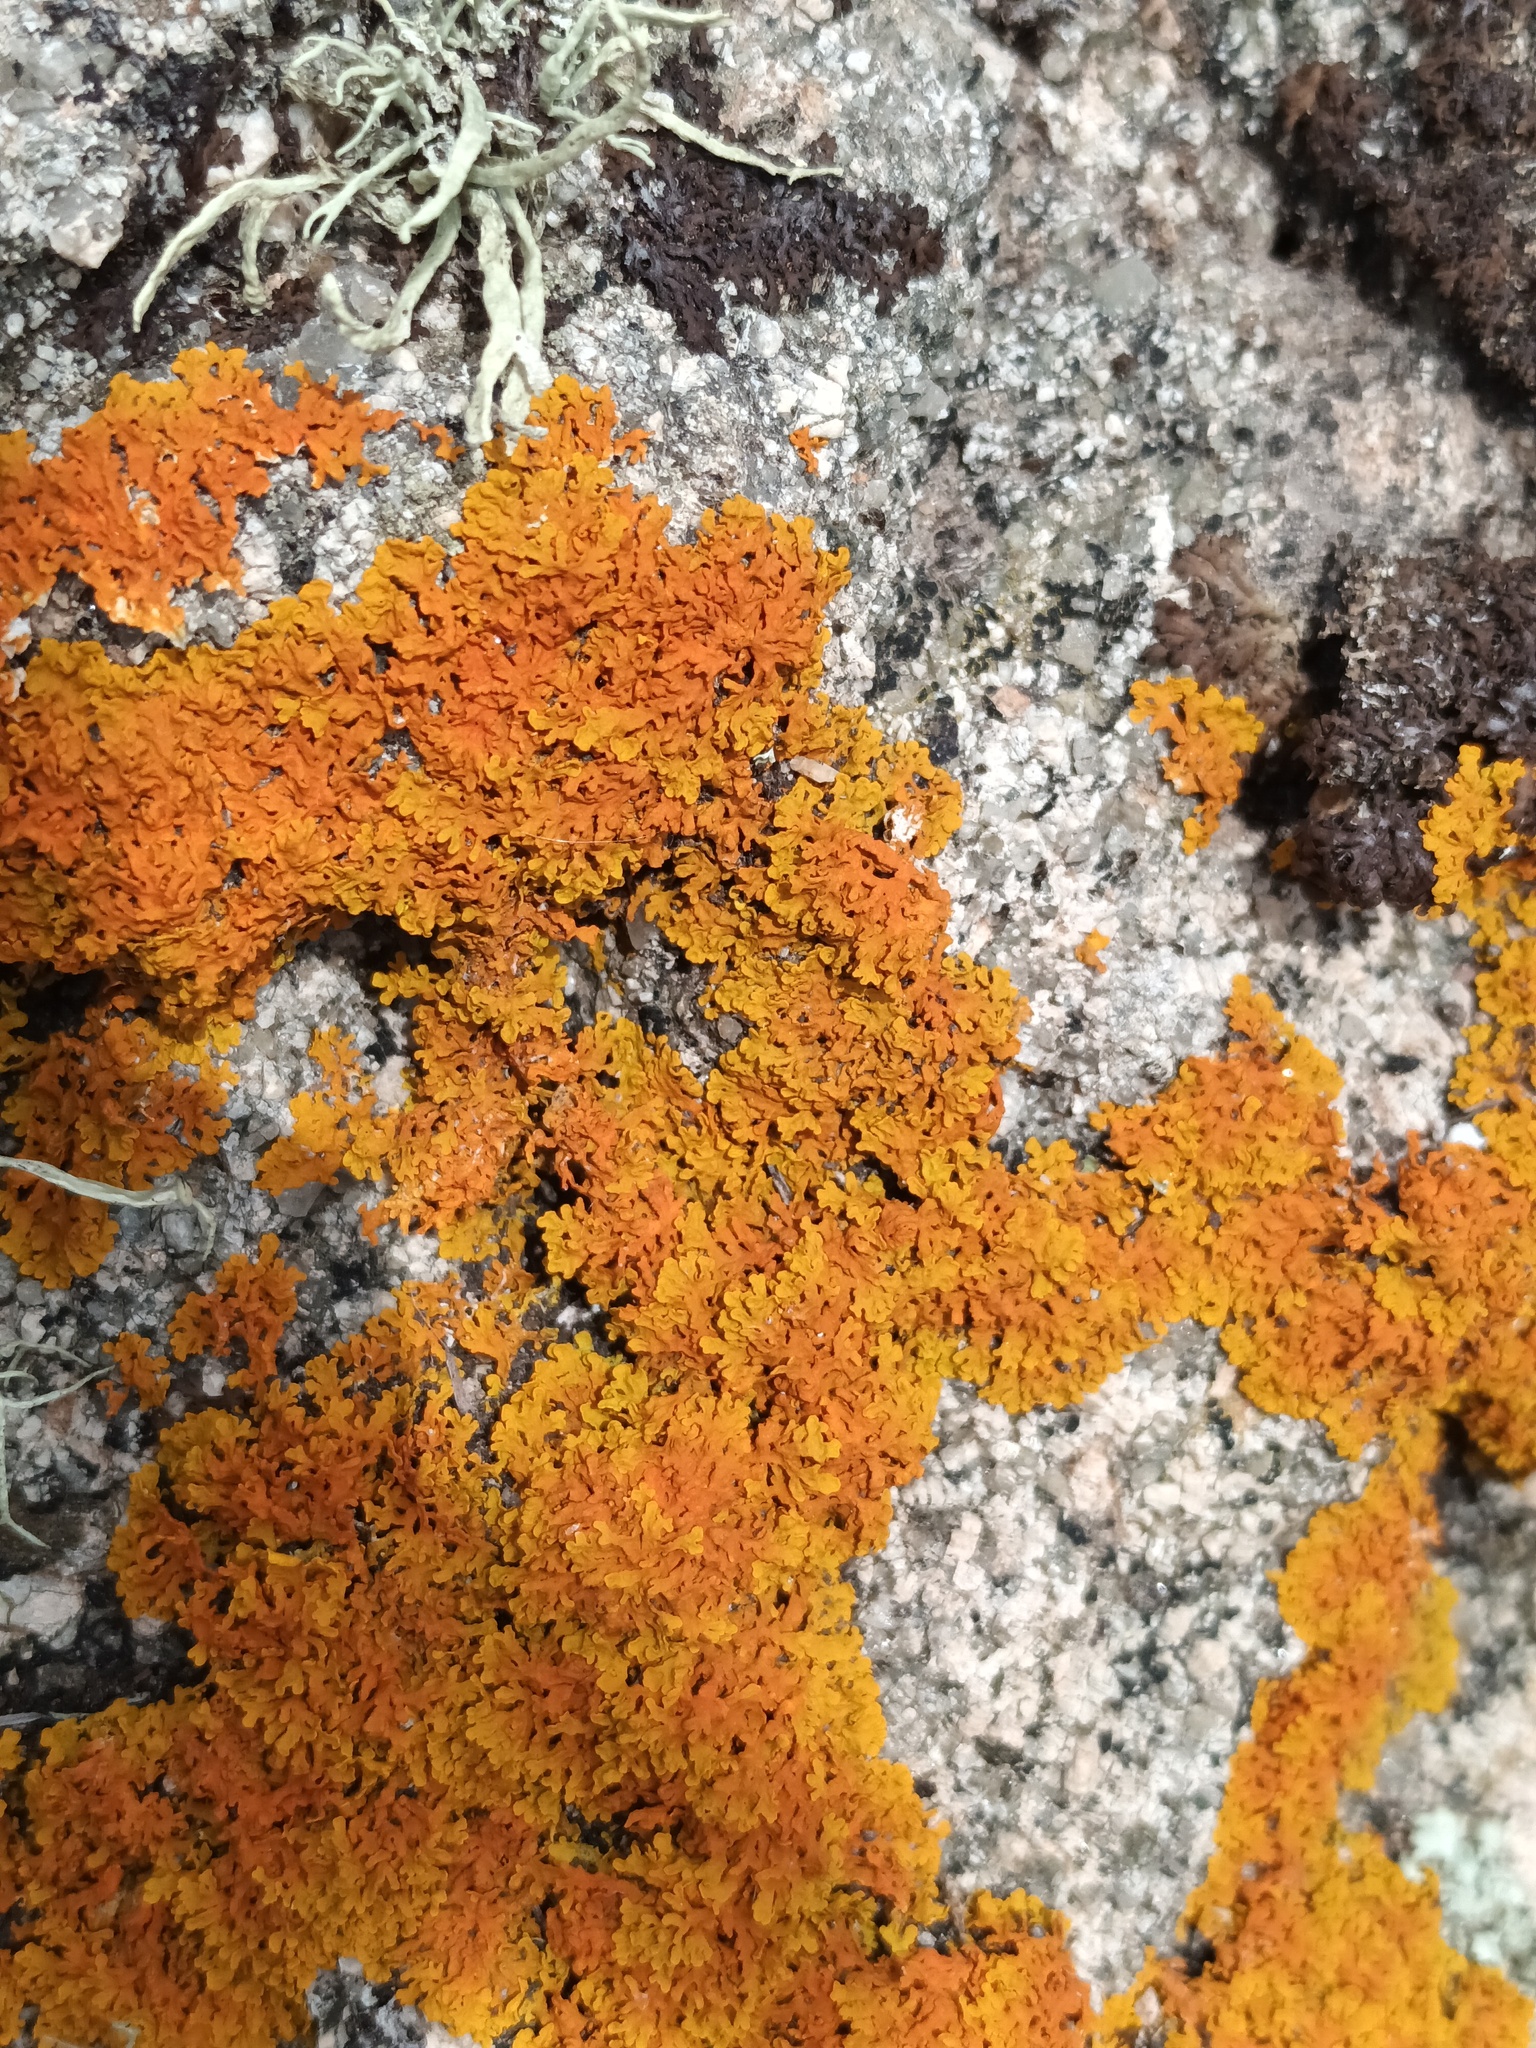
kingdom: Fungi
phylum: Ascomycota
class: Lecanoromycetes
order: Teloschistales
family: Teloschistaceae
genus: Xanthoria
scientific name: Xanthoria aureola
